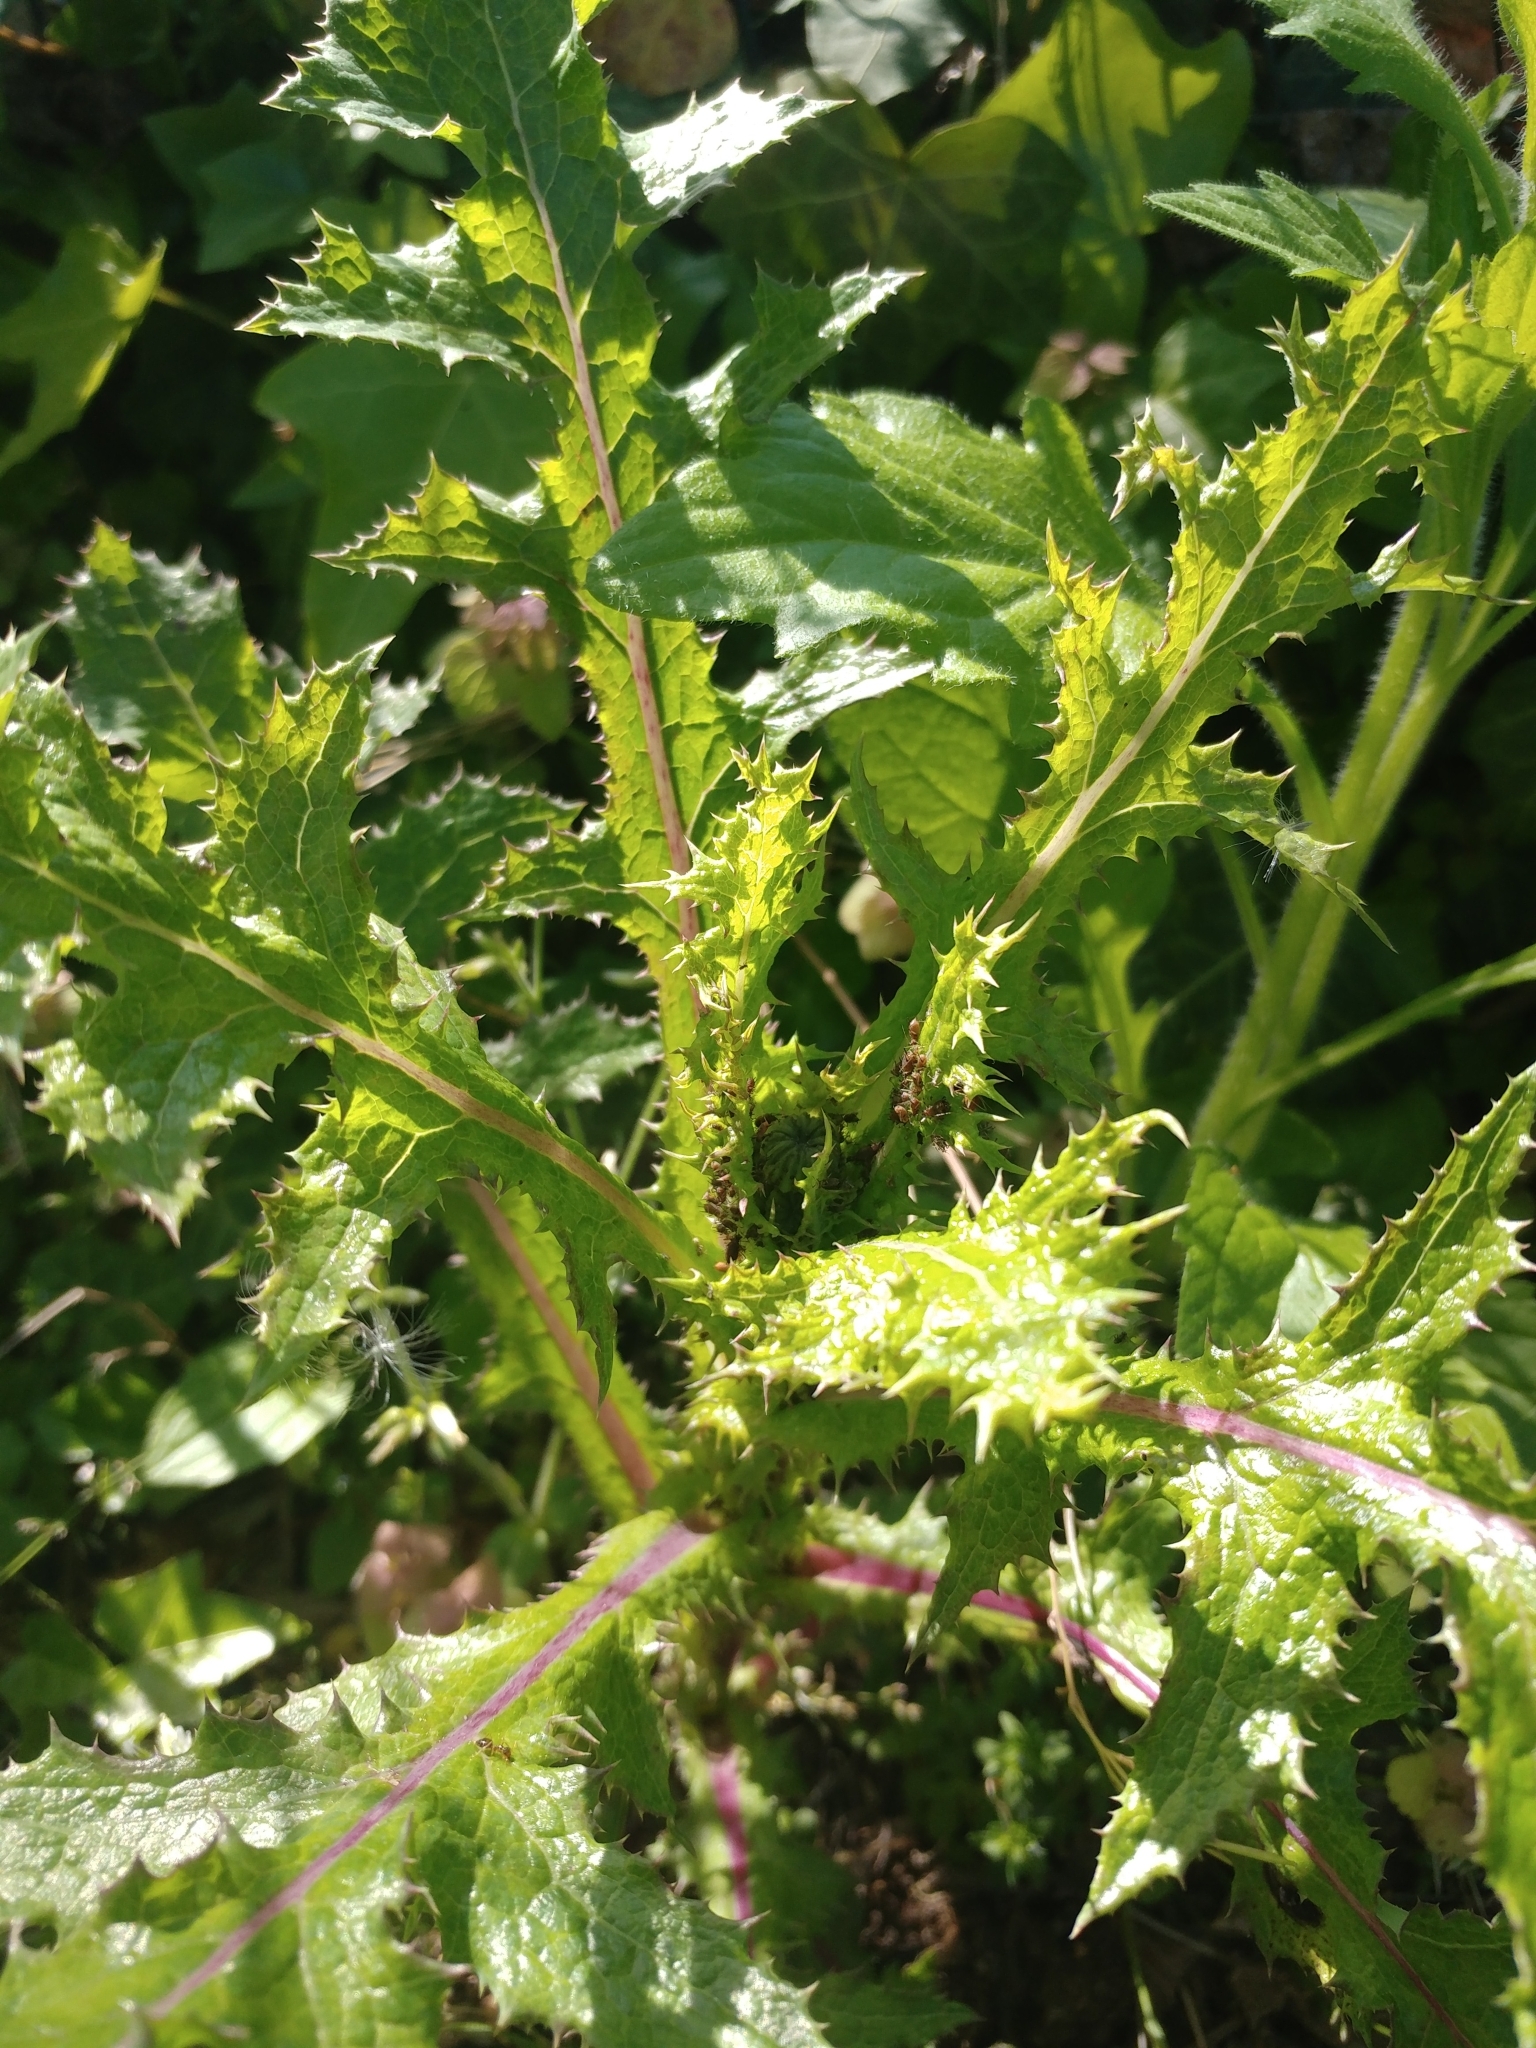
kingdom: Plantae
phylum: Tracheophyta
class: Magnoliopsida
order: Asterales
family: Asteraceae
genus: Sonchus
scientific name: Sonchus asper
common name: Prickly sow-thistle
